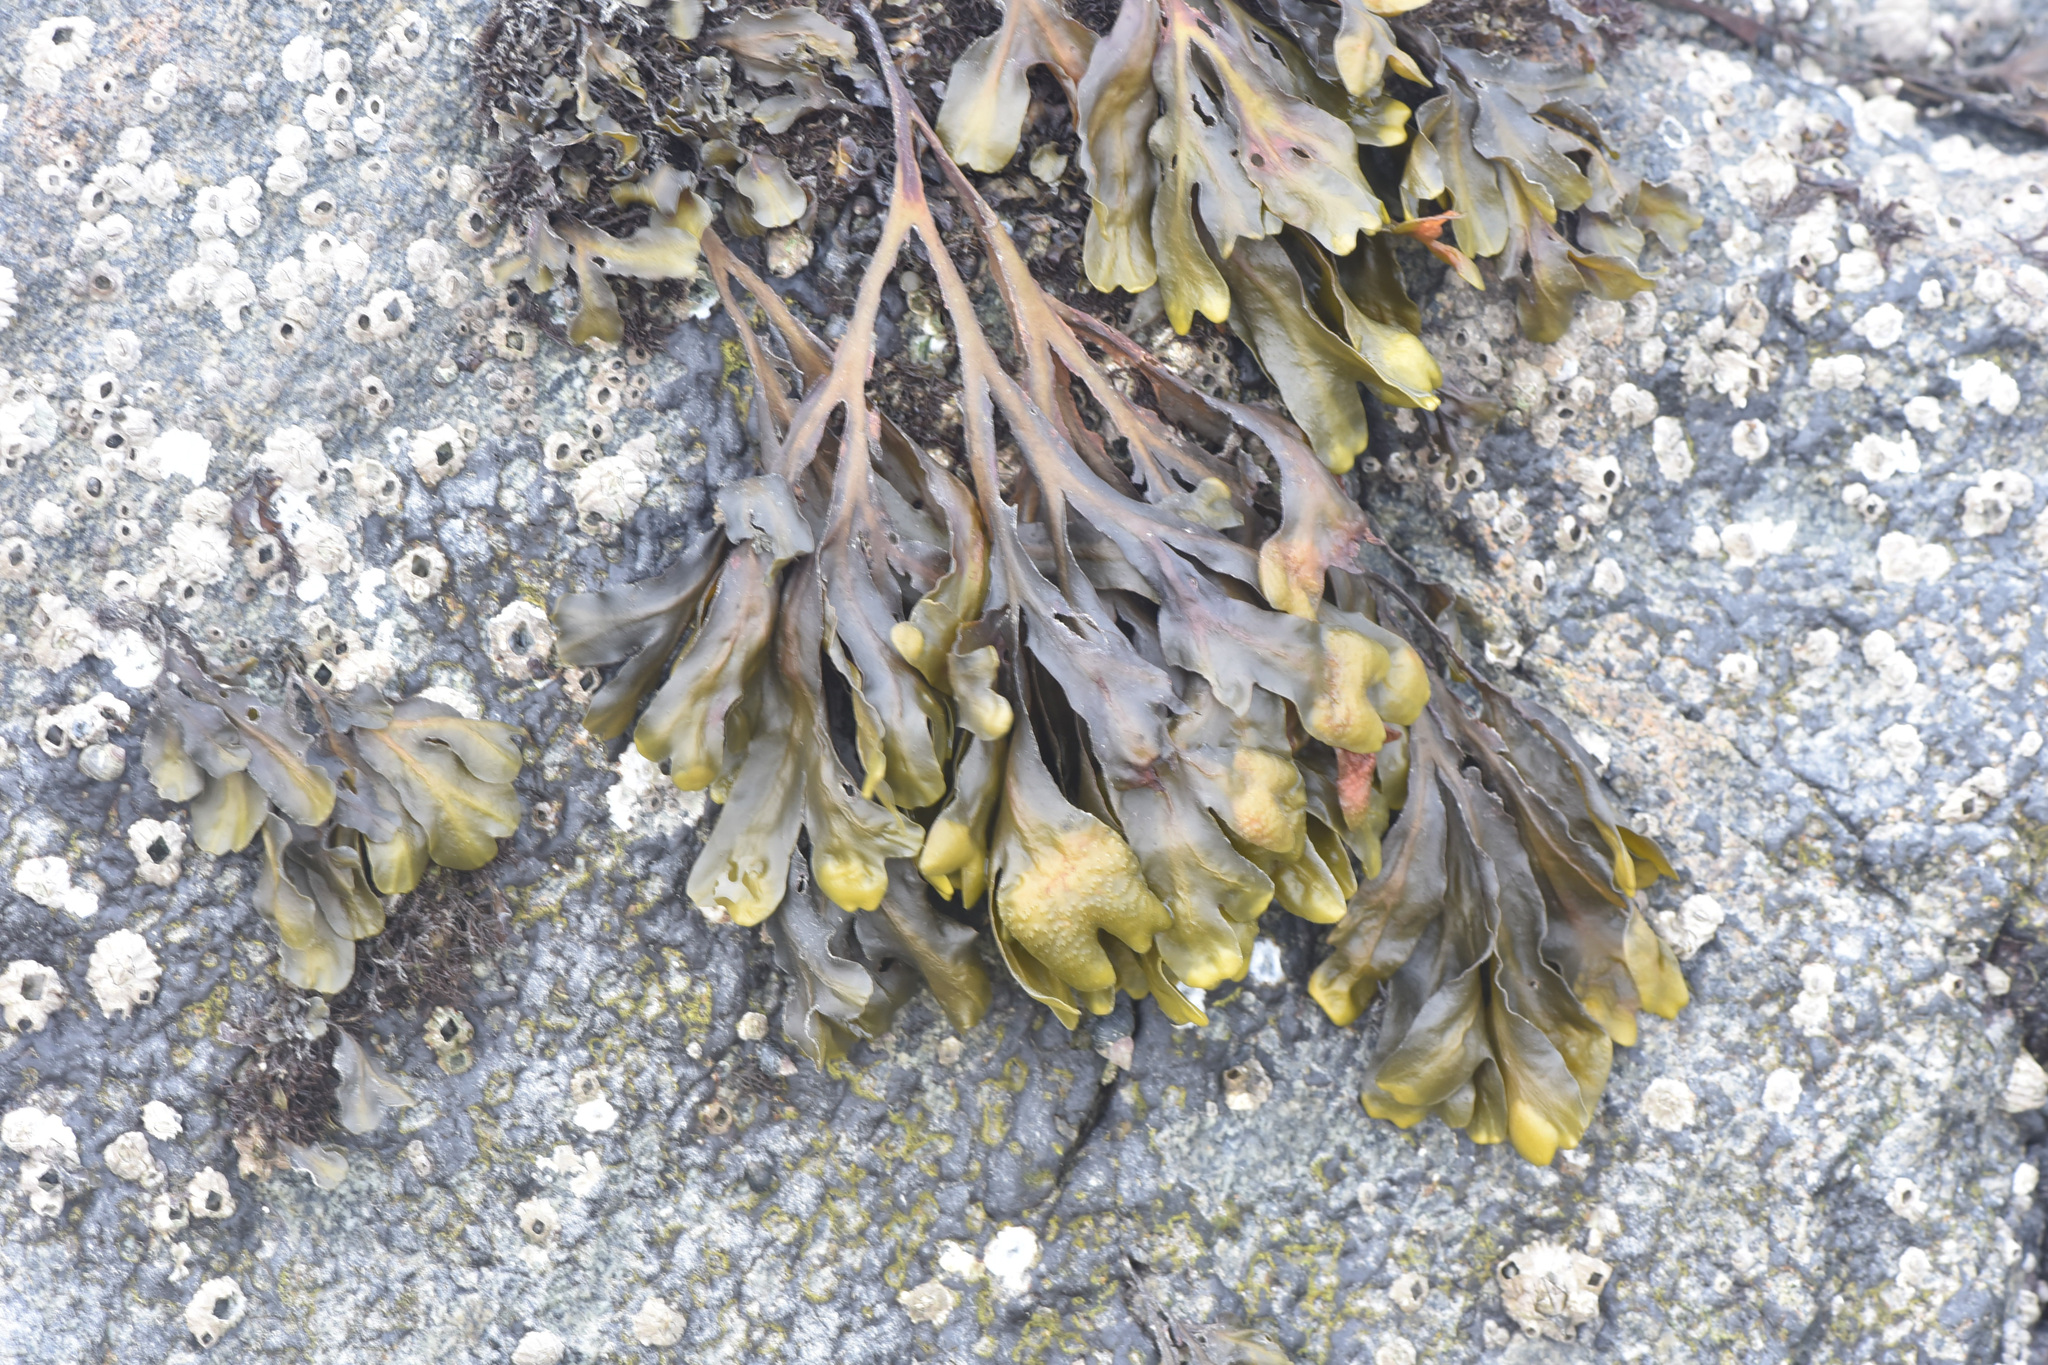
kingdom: Chromista
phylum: Ochrophyta
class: Phaeophyceae
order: Fucales
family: Fucaceae
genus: Fucus
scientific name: Fucus distichus
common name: Rockweed
